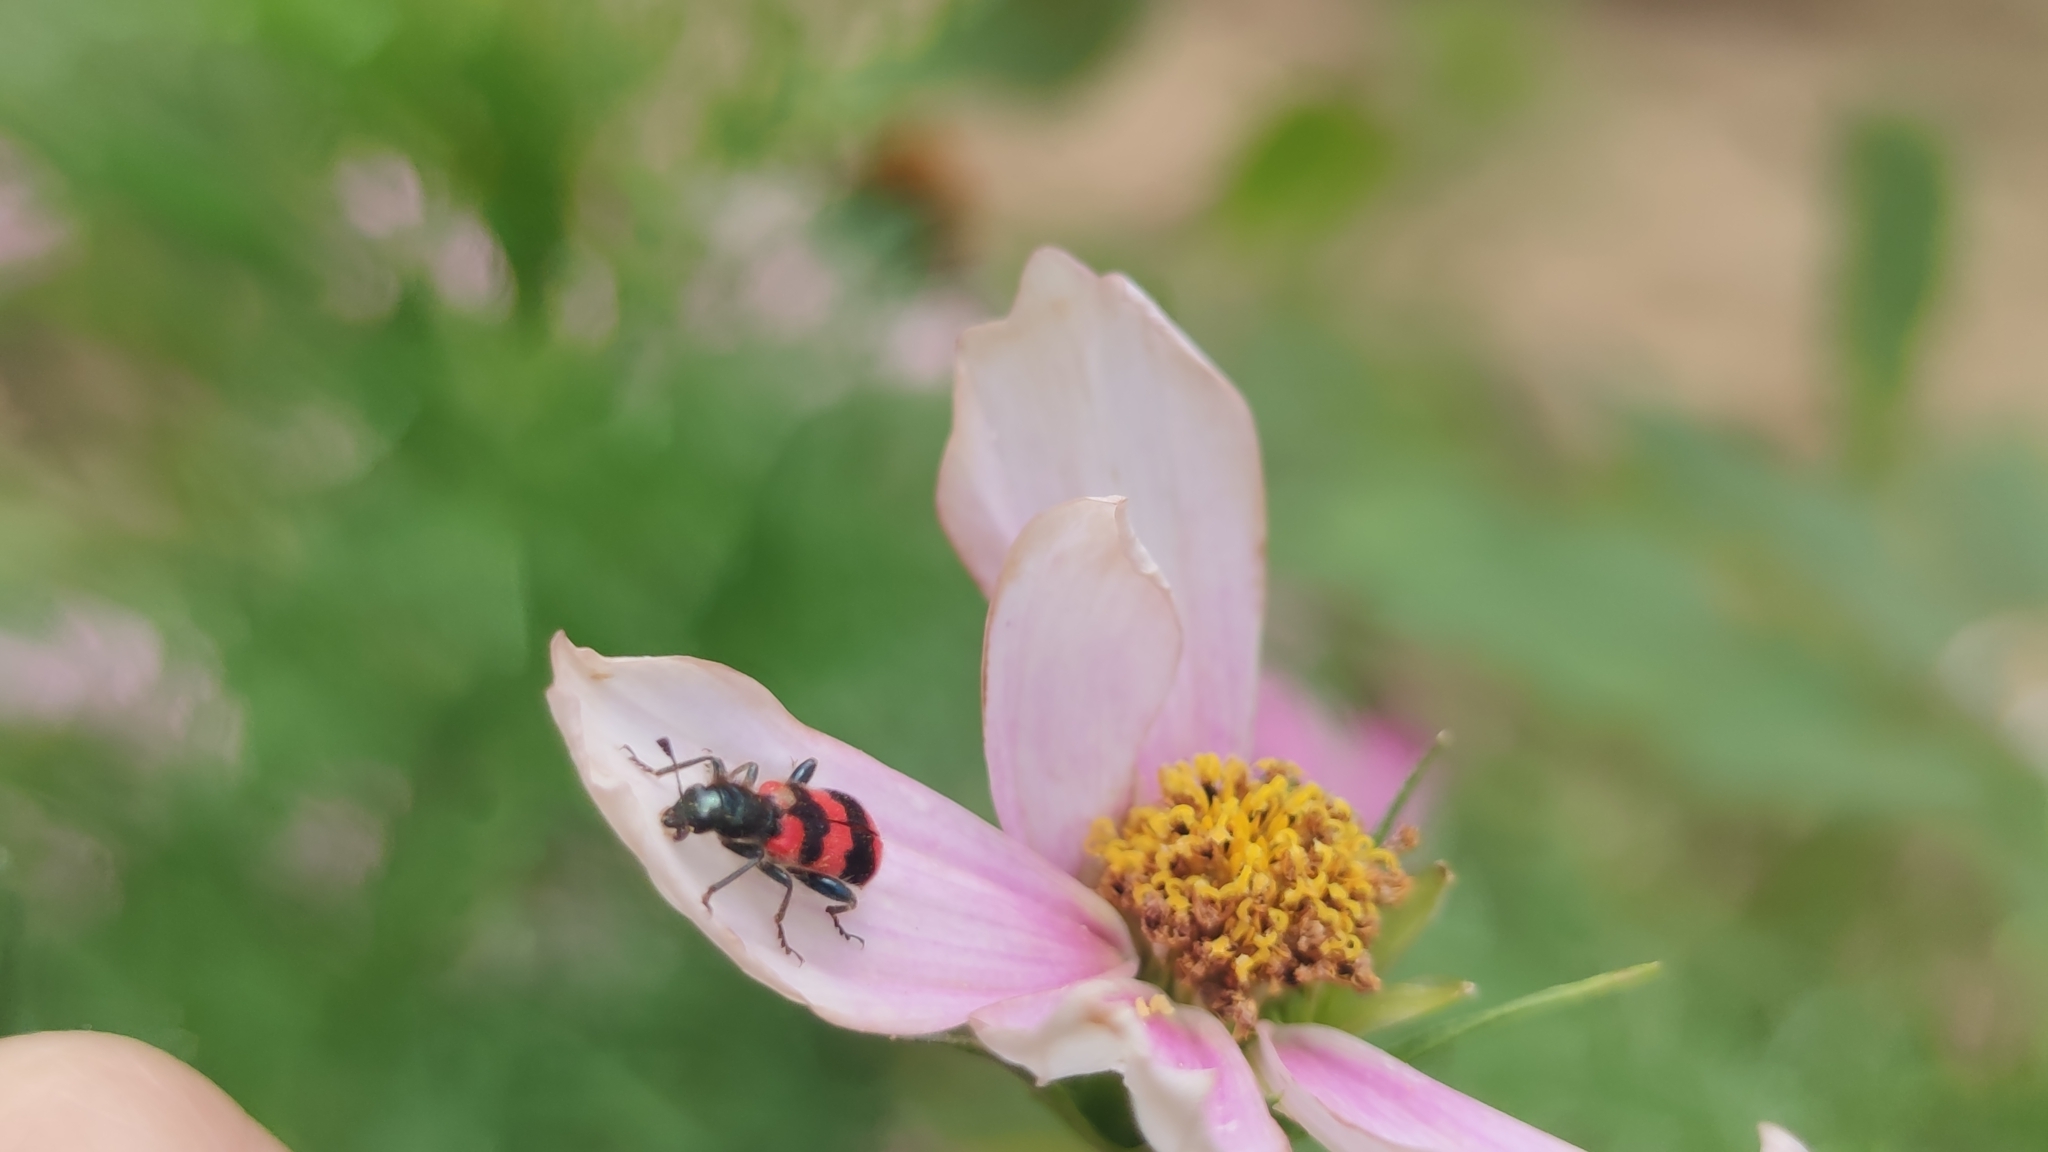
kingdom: Animalia
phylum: Arthropoda
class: Insecta
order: Coleoptera
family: Cleridae
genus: Trichodes
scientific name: Trichodes apiarius
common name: Bee-eating beetle
